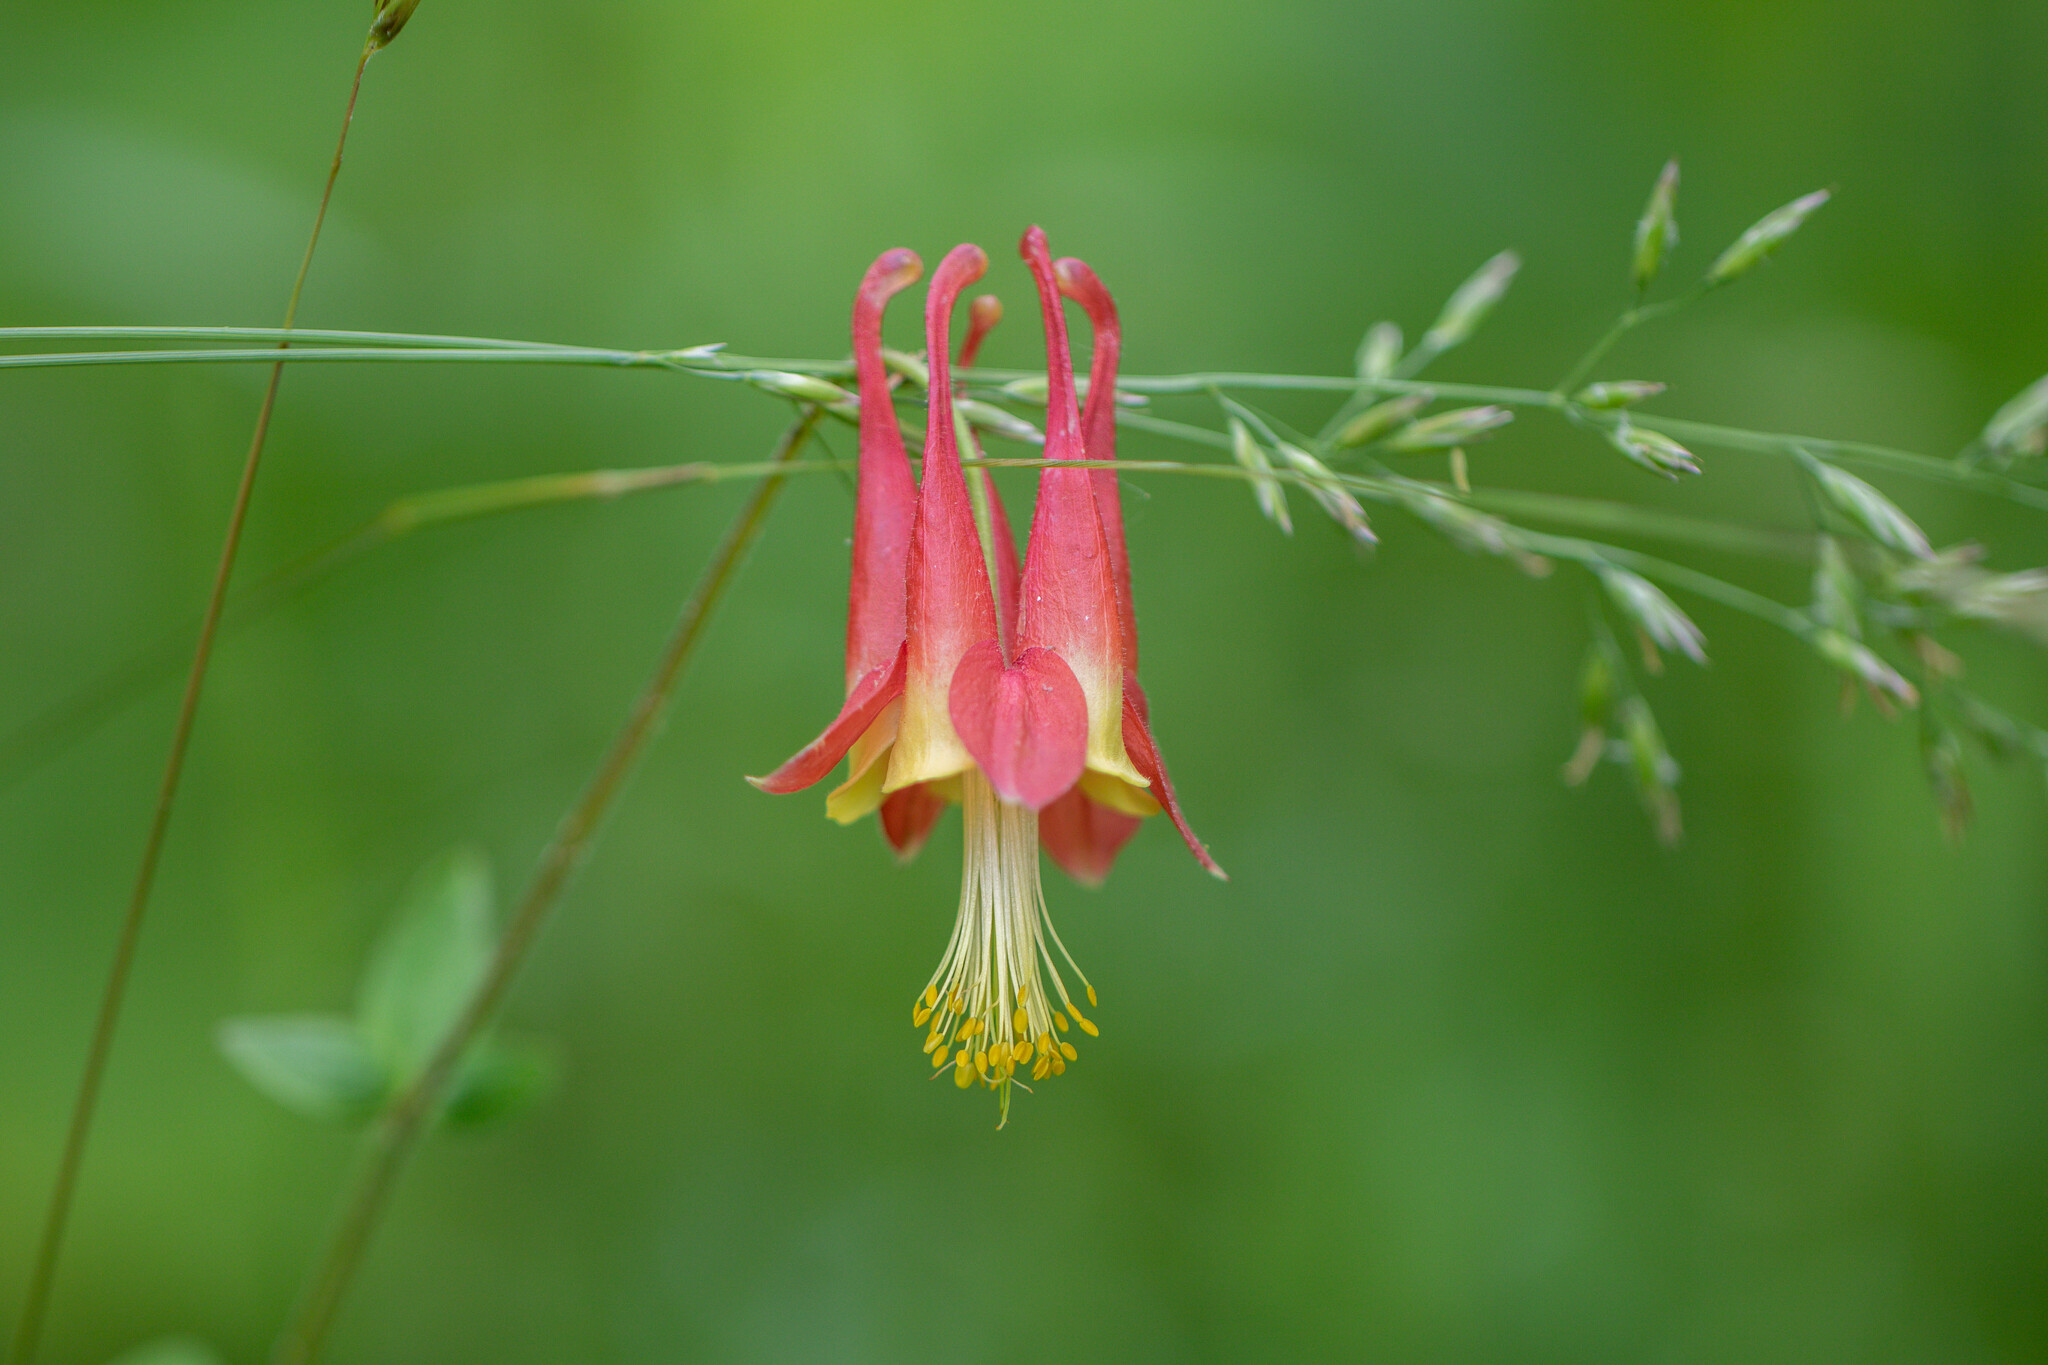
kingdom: Plantae
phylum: Tracheophyta
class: Magnoliopsida
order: Ranunculales
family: Ranunculaceae
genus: Aquilegia
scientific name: Aquilegia canadensis
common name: American columbine
